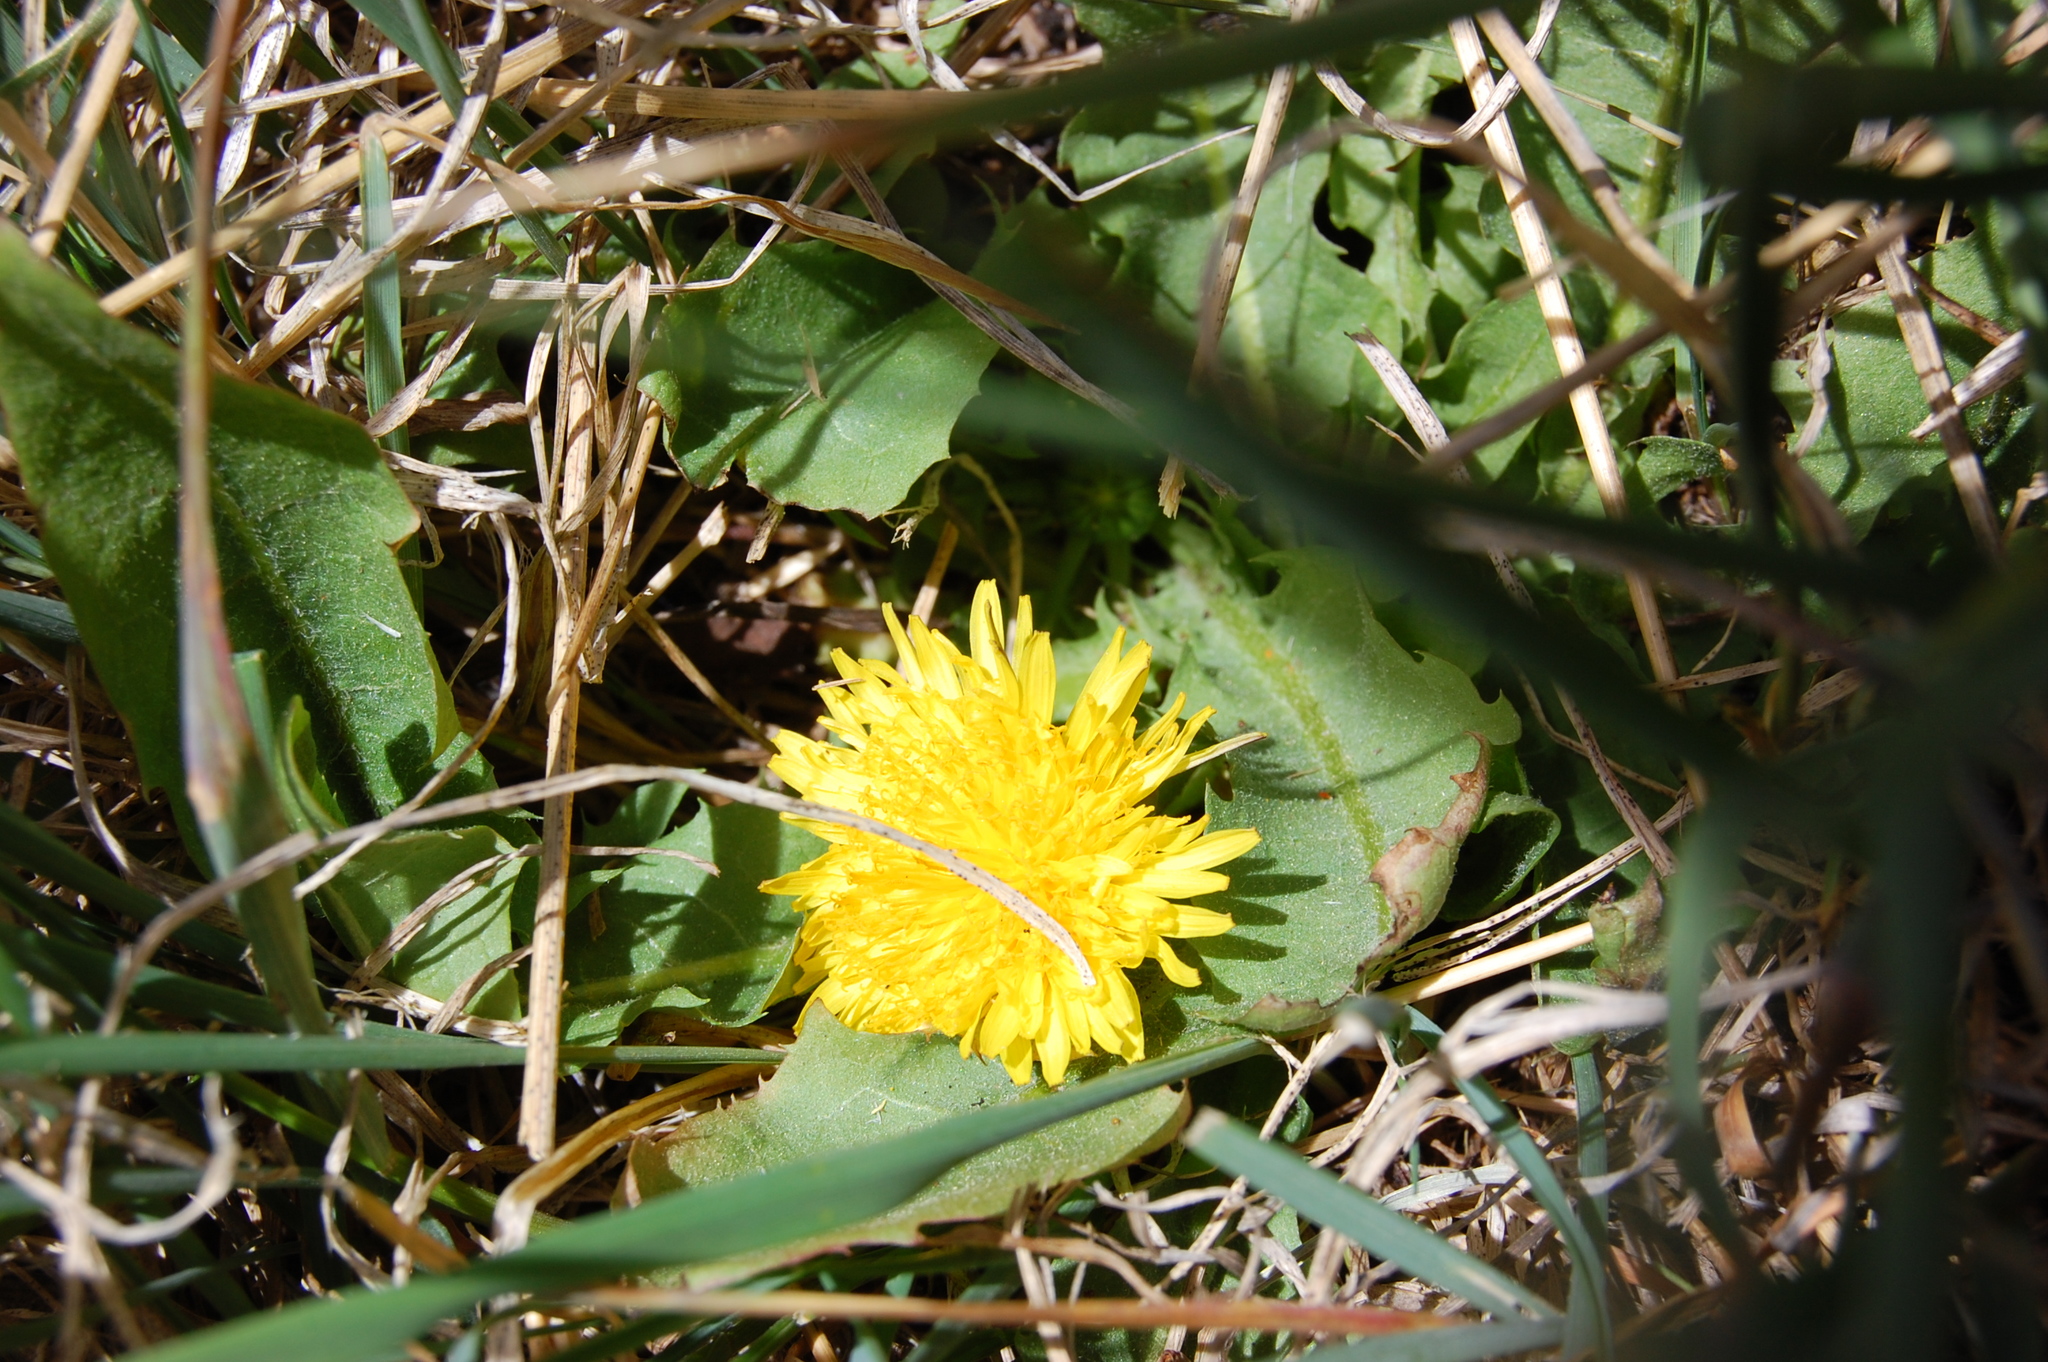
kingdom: Plantae
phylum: Tracheophyta
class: Magnoliopsida
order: Asterales
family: Asteraceae
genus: Taraxacum
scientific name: Taraxacum officinale
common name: Common dandelion
